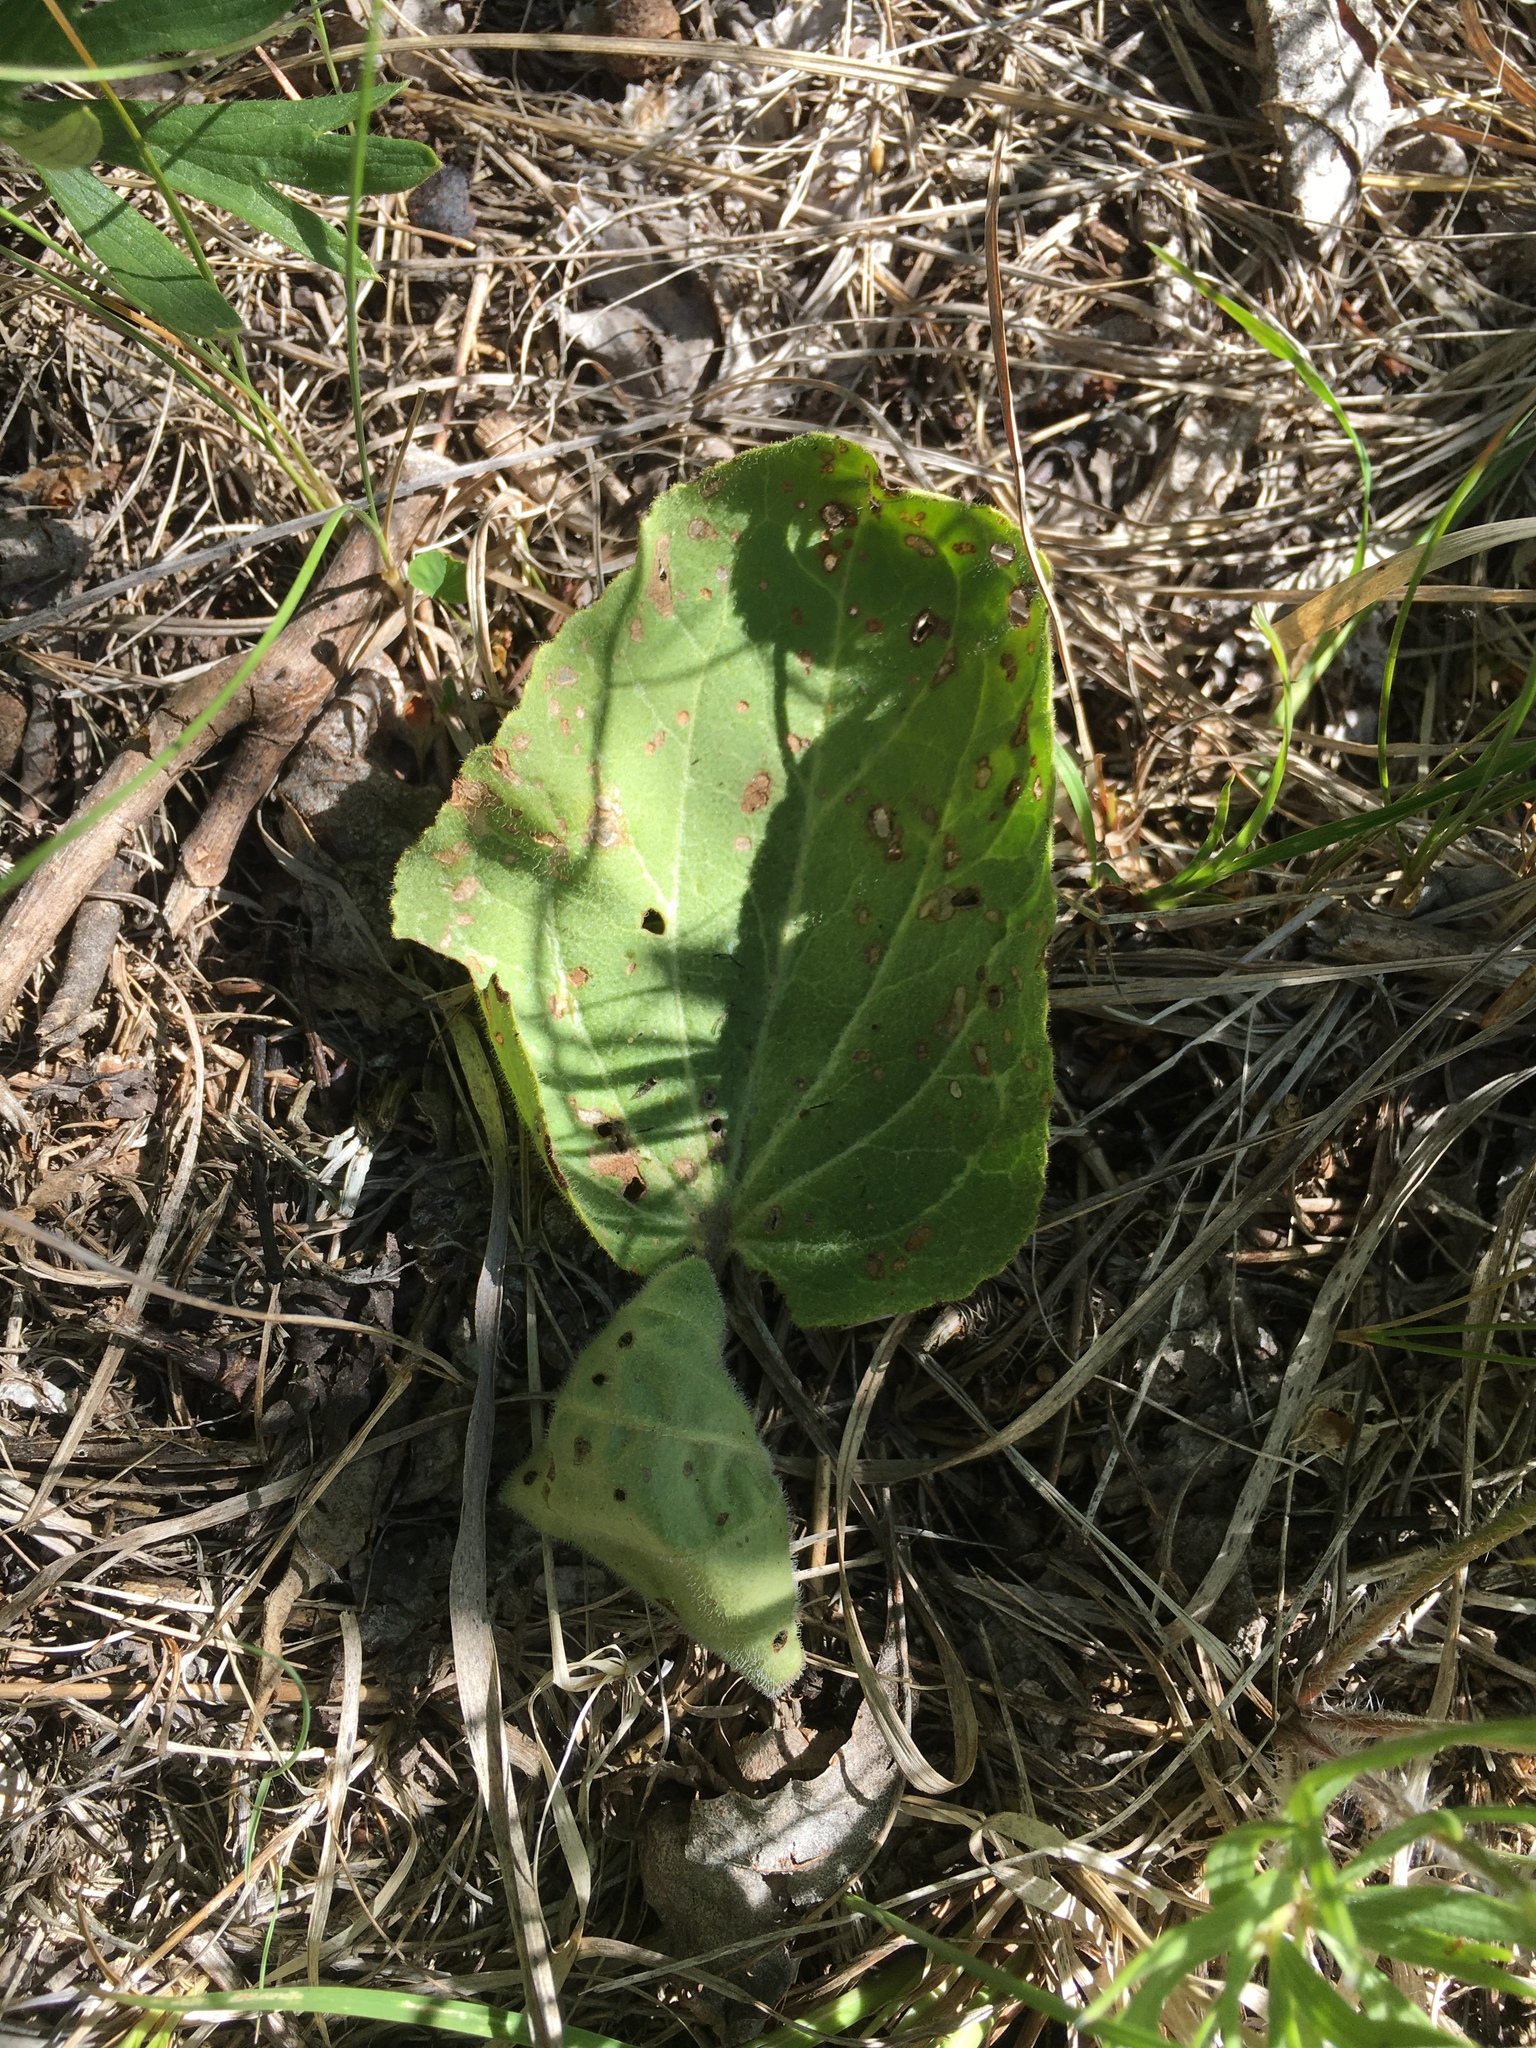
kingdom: Plantae
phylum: Tracheophyta
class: Magnoliopsida
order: Lamiales
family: Plantaginaceae
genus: Synthyris
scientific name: Synthyris bullii
